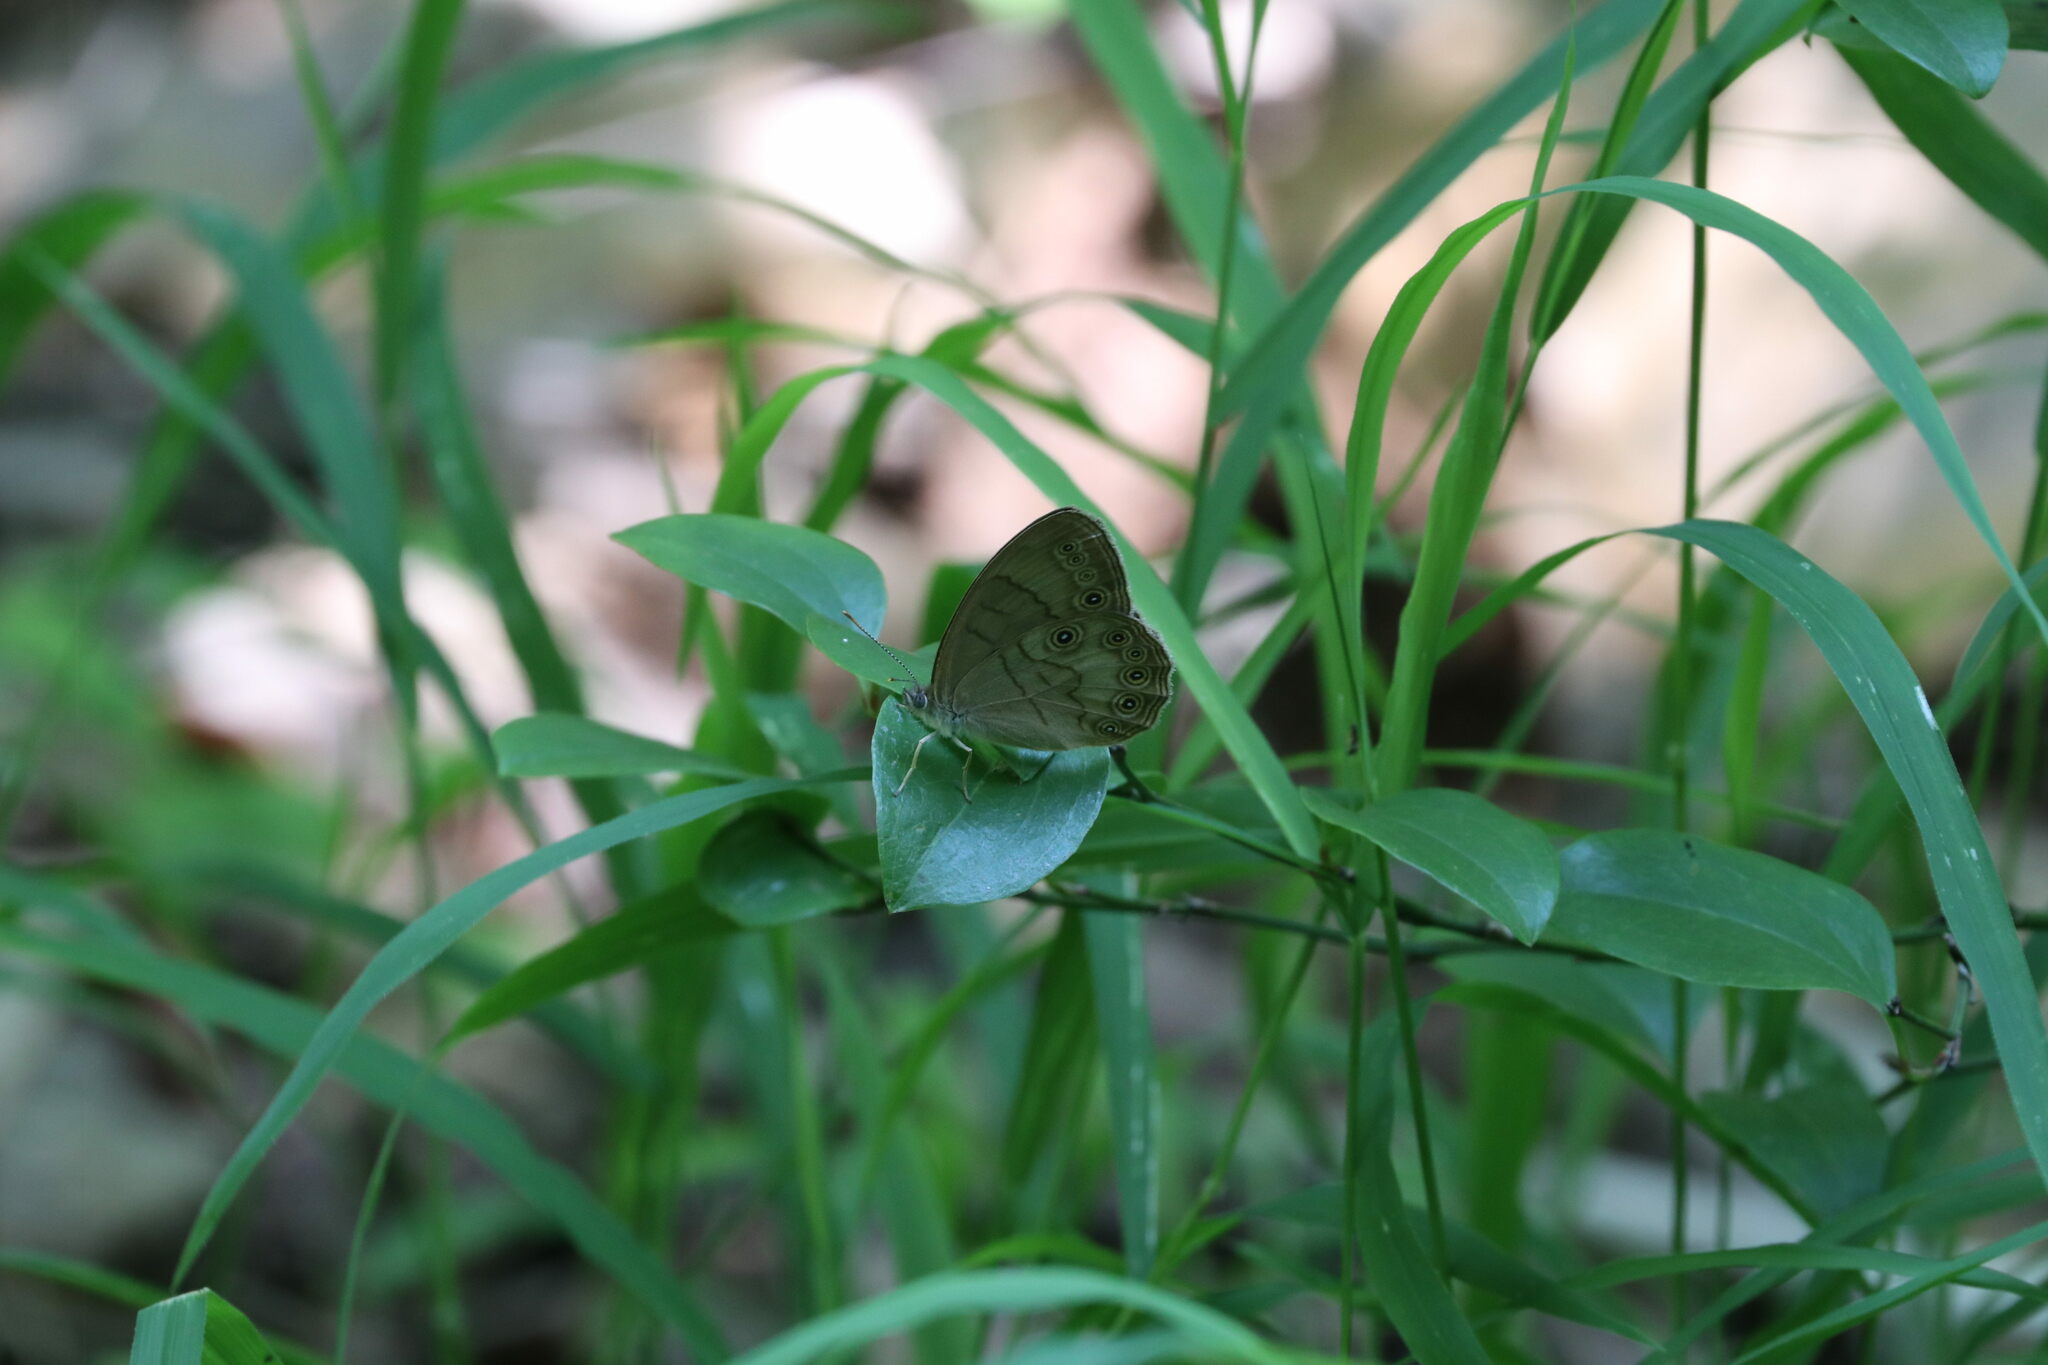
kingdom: Animalia
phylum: Arthropoda
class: Insecta
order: Lepidoptera
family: Nymphalidae
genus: Lethe
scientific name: Lethe eurydice
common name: Eyed brown
